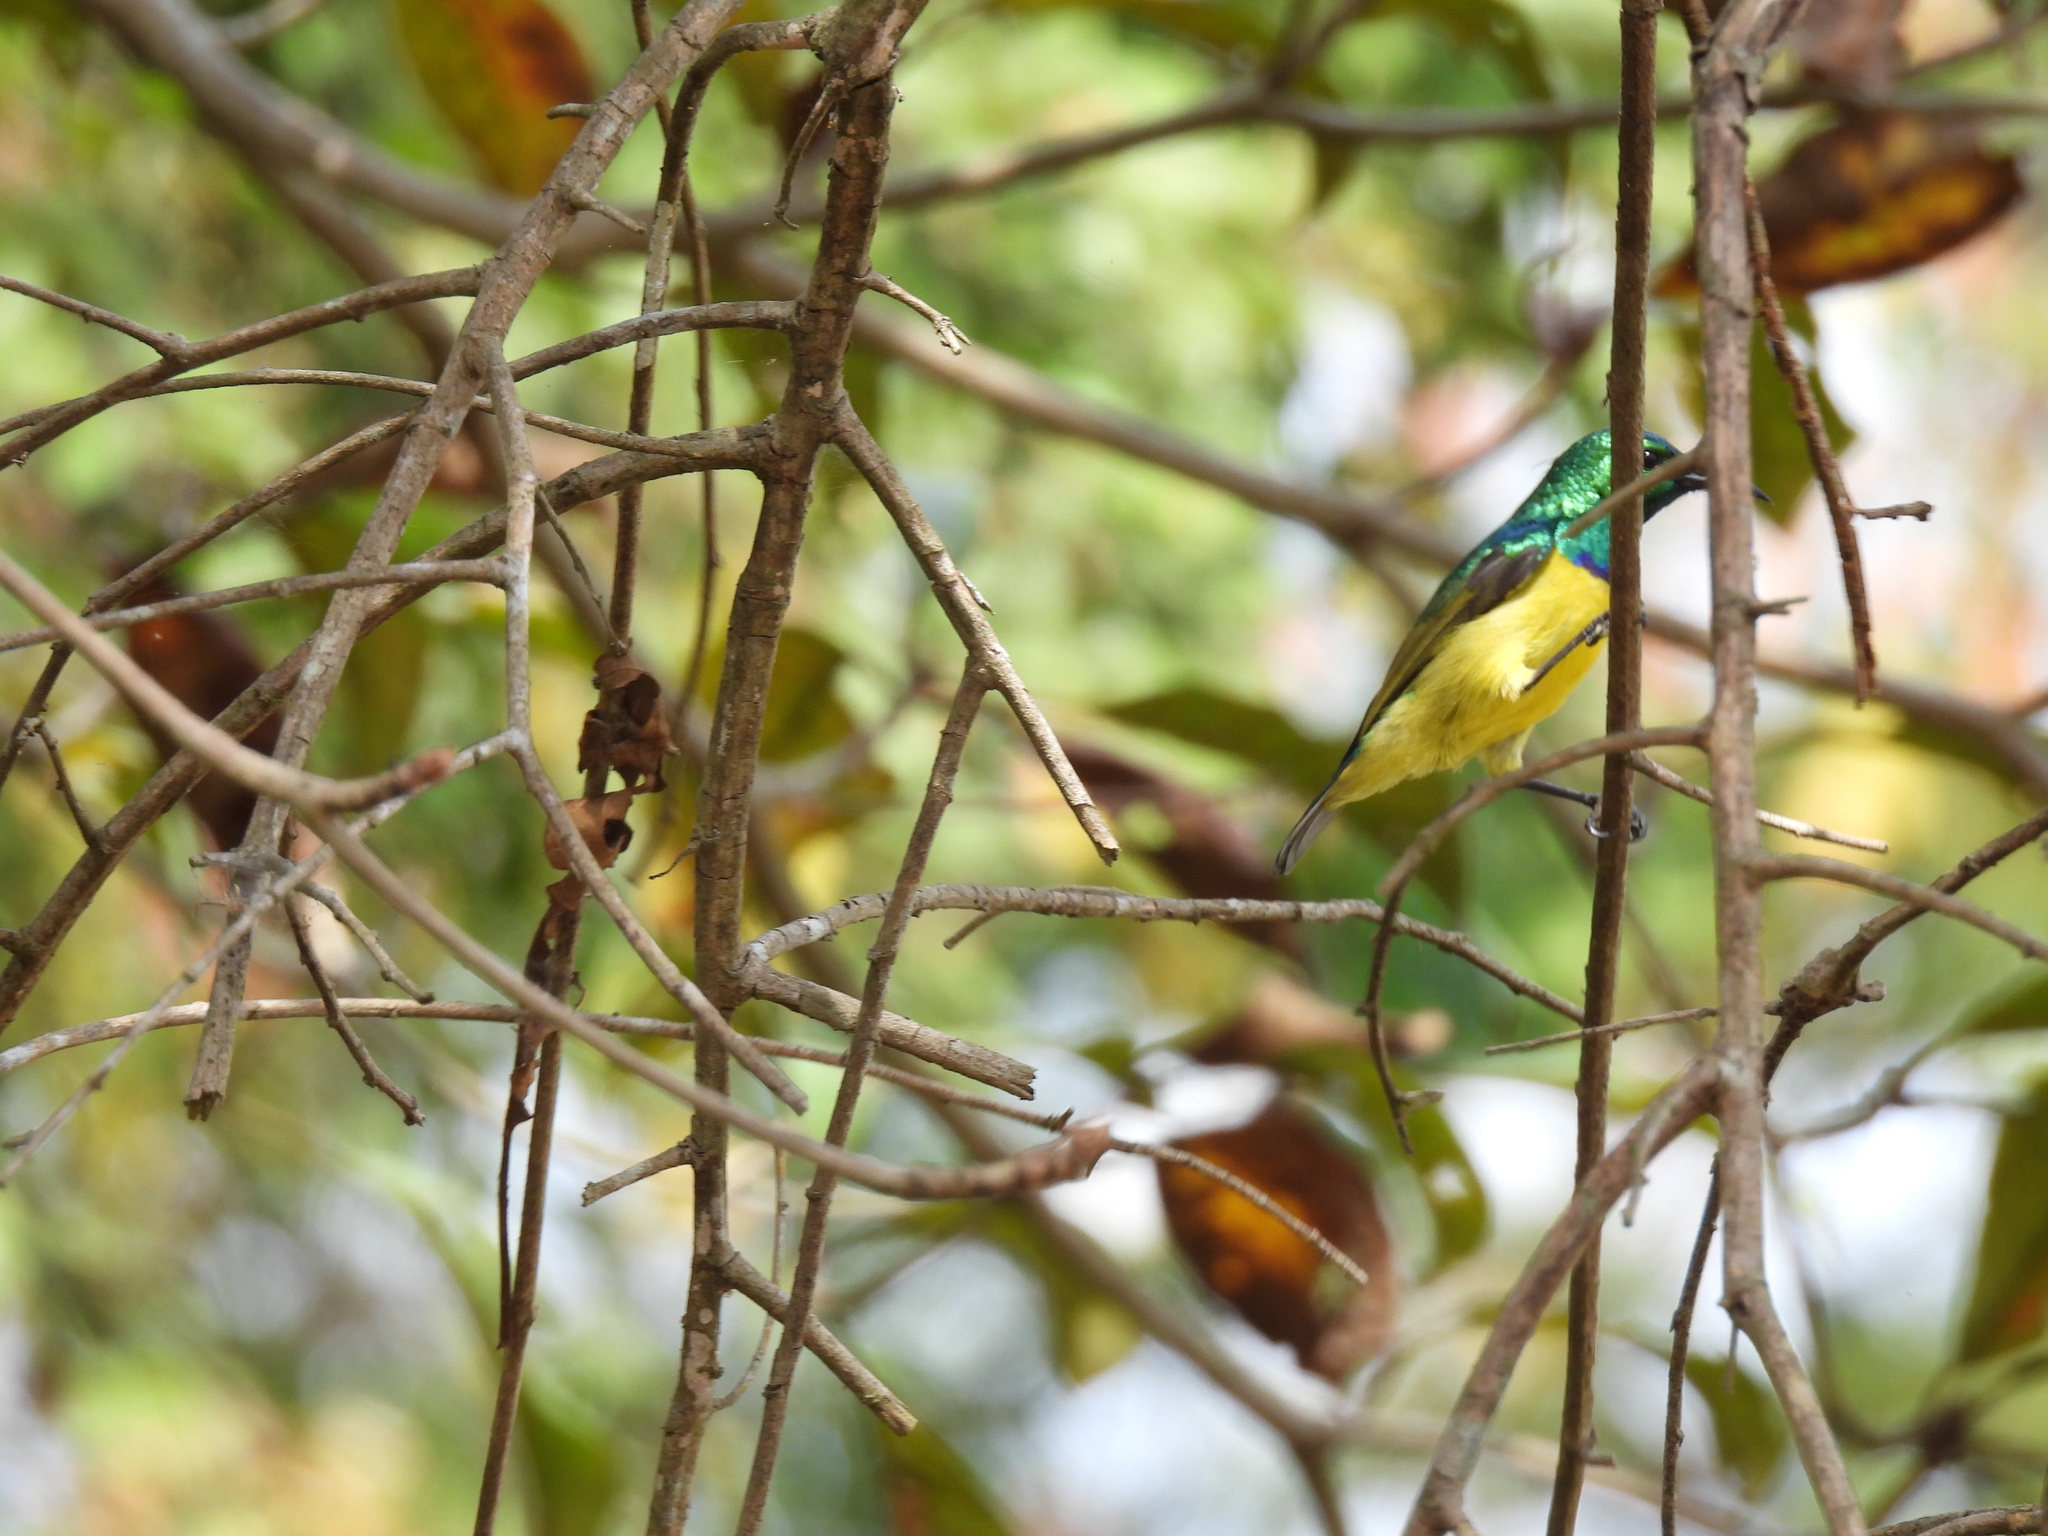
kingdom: Animalia
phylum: Chordata
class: Aves
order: Passeriformes
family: Nectariniidae
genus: Hedydipna
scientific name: Hedydipna collaris
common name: Collared sunbird
